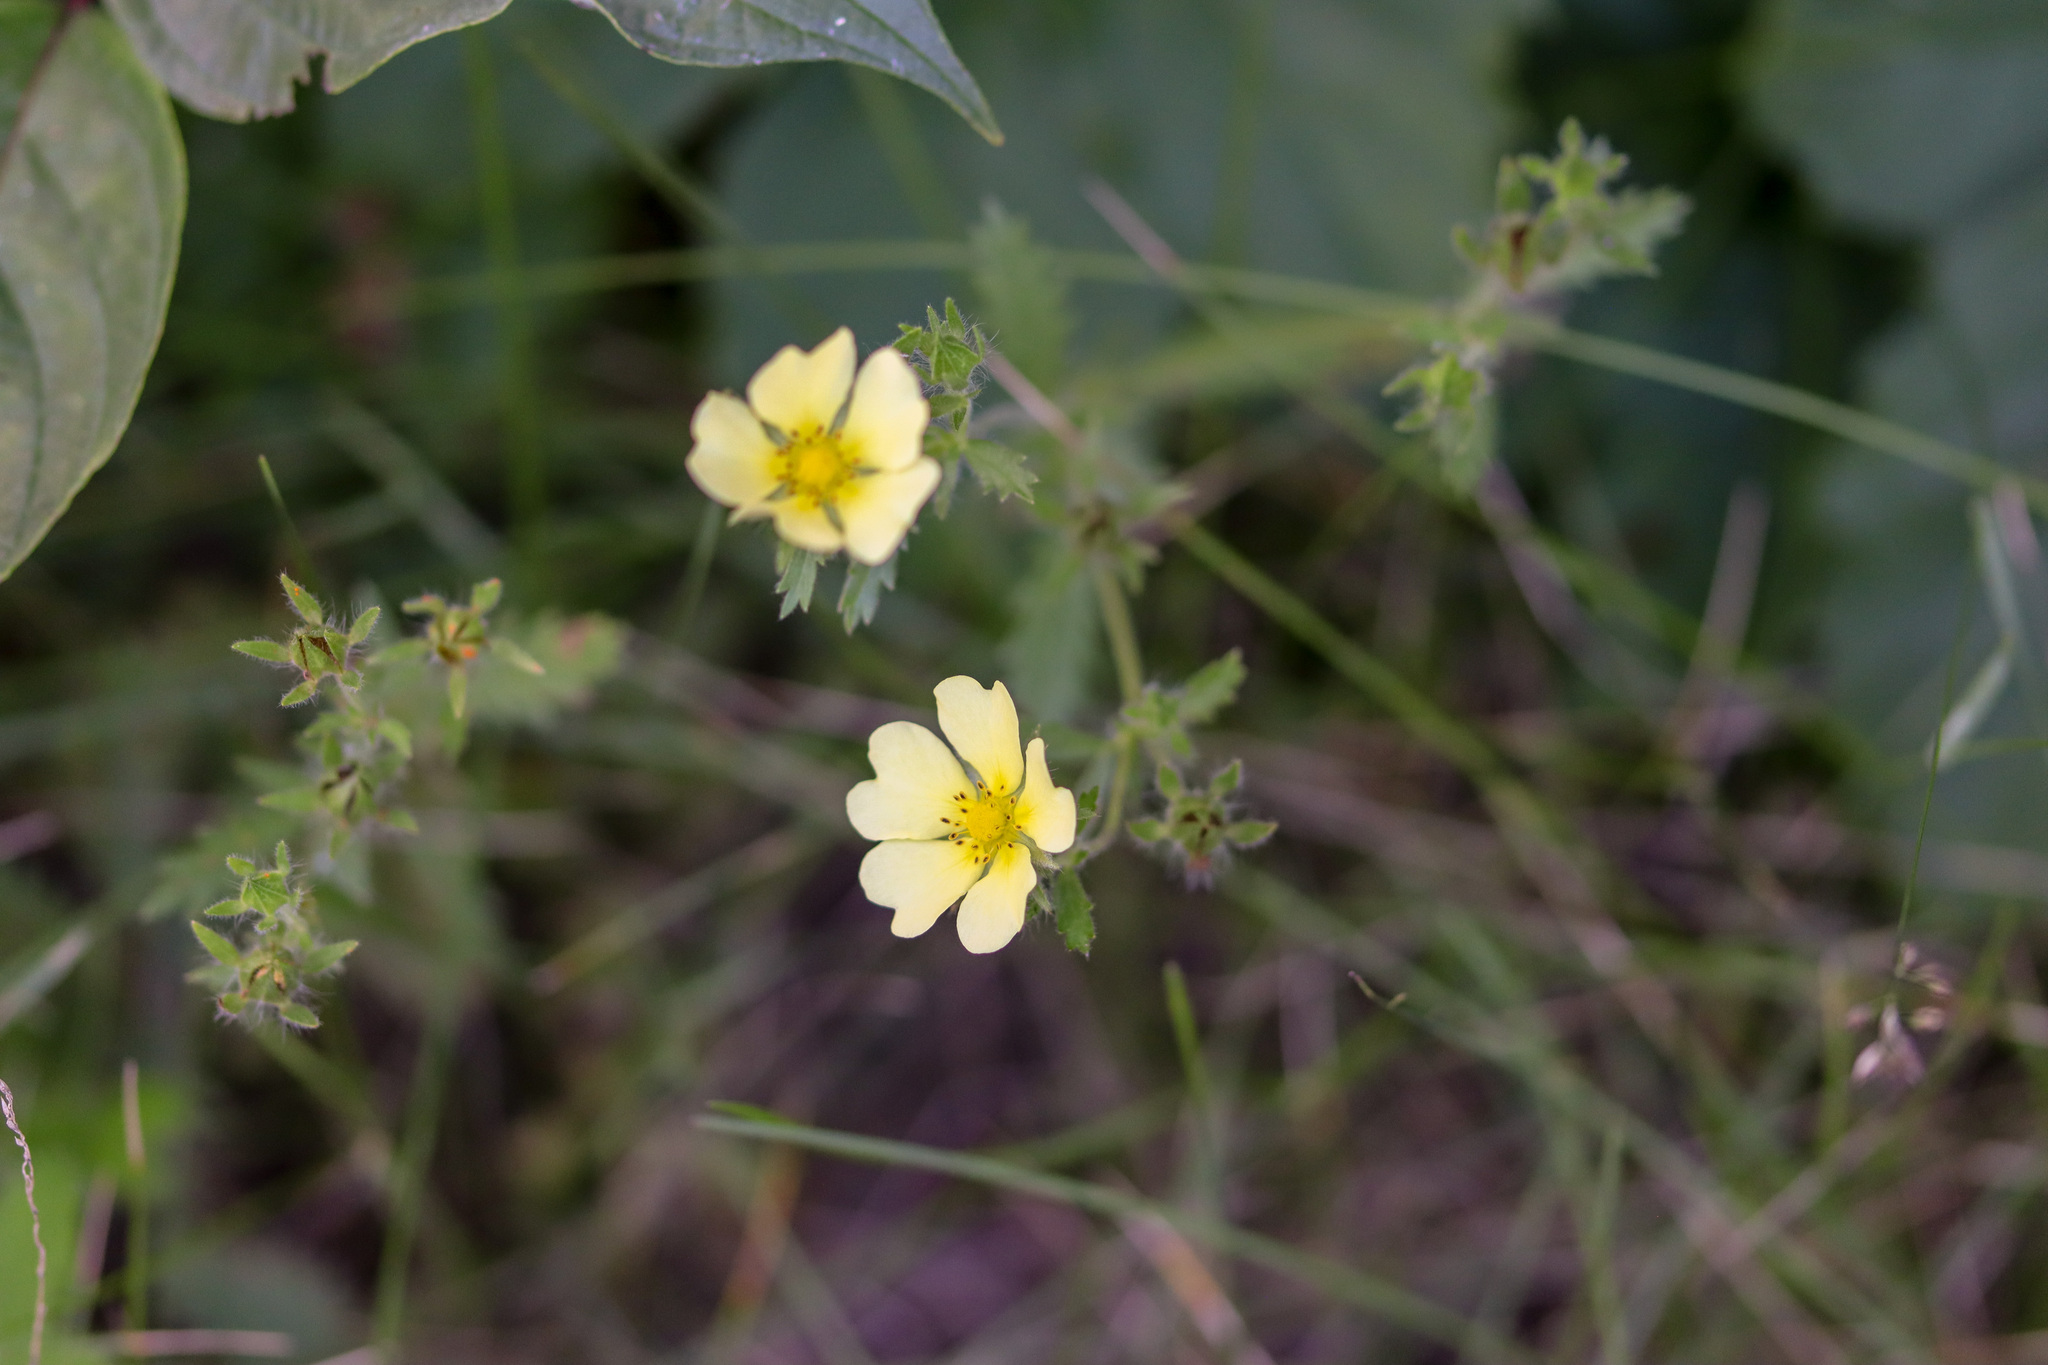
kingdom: Plantae
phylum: Tracheophyta
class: Magnoliopsida
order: Rosales
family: Rosaceae
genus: Potentilla
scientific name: Potentilla recta
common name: Sulphur cinquefoil
